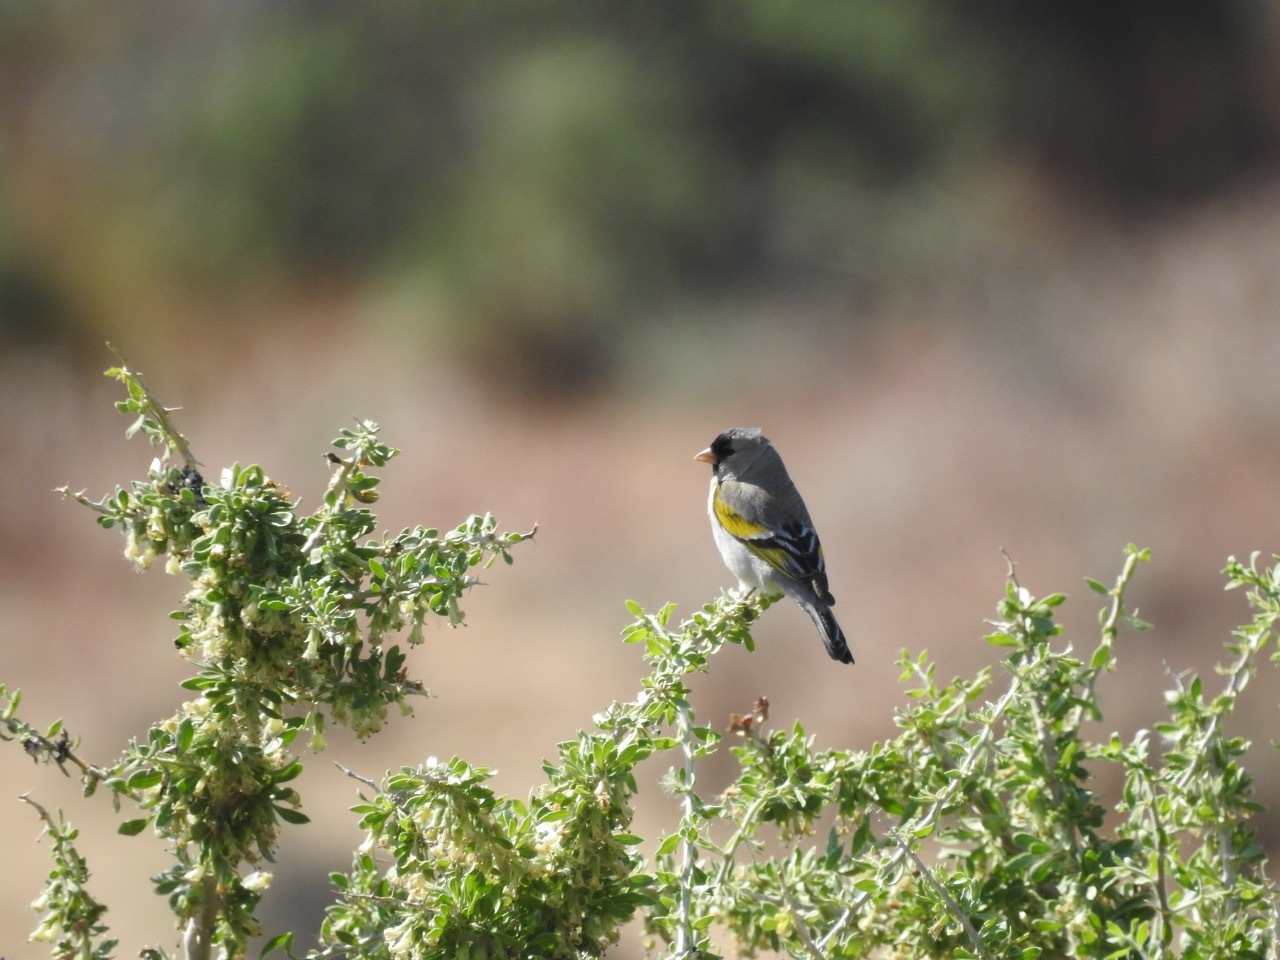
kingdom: Animalia
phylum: Chordata
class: Aves
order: Passeriformes
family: Fringillidae
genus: Spinus
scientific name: Spinus lawrencei
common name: Lawrence's goldfinch
